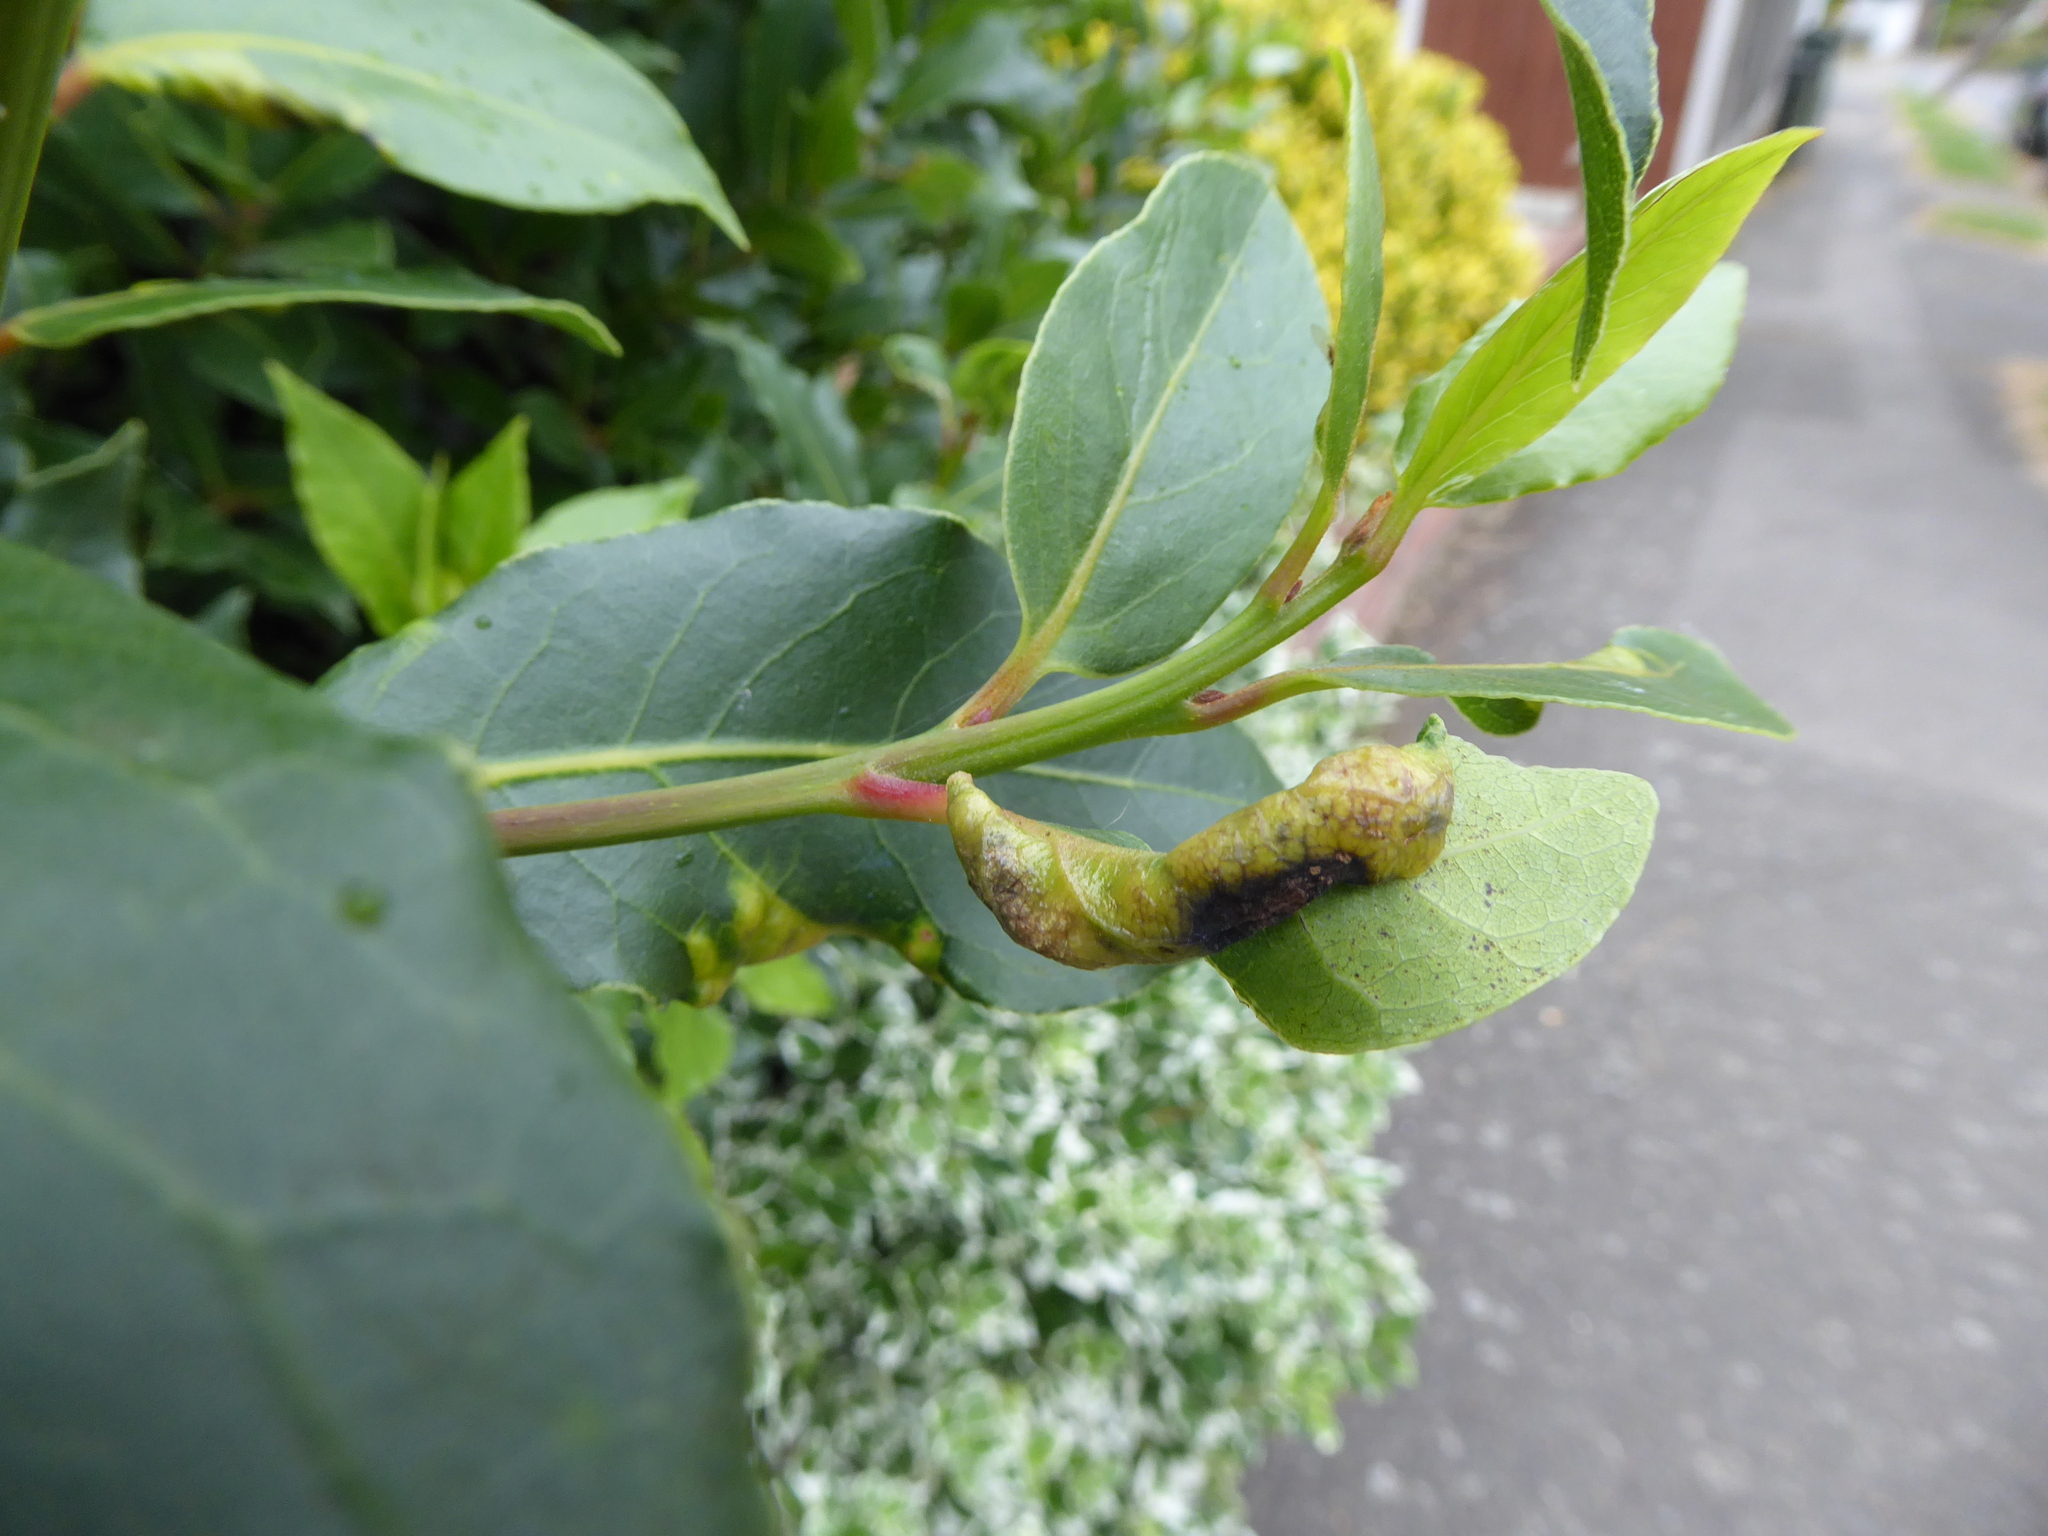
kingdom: Animalia
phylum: Arthropoda
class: Insecta
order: Hemiptera
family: Triozidae
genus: Lauritrioza
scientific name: Lauritrioza alacris
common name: Laurel psyllid
